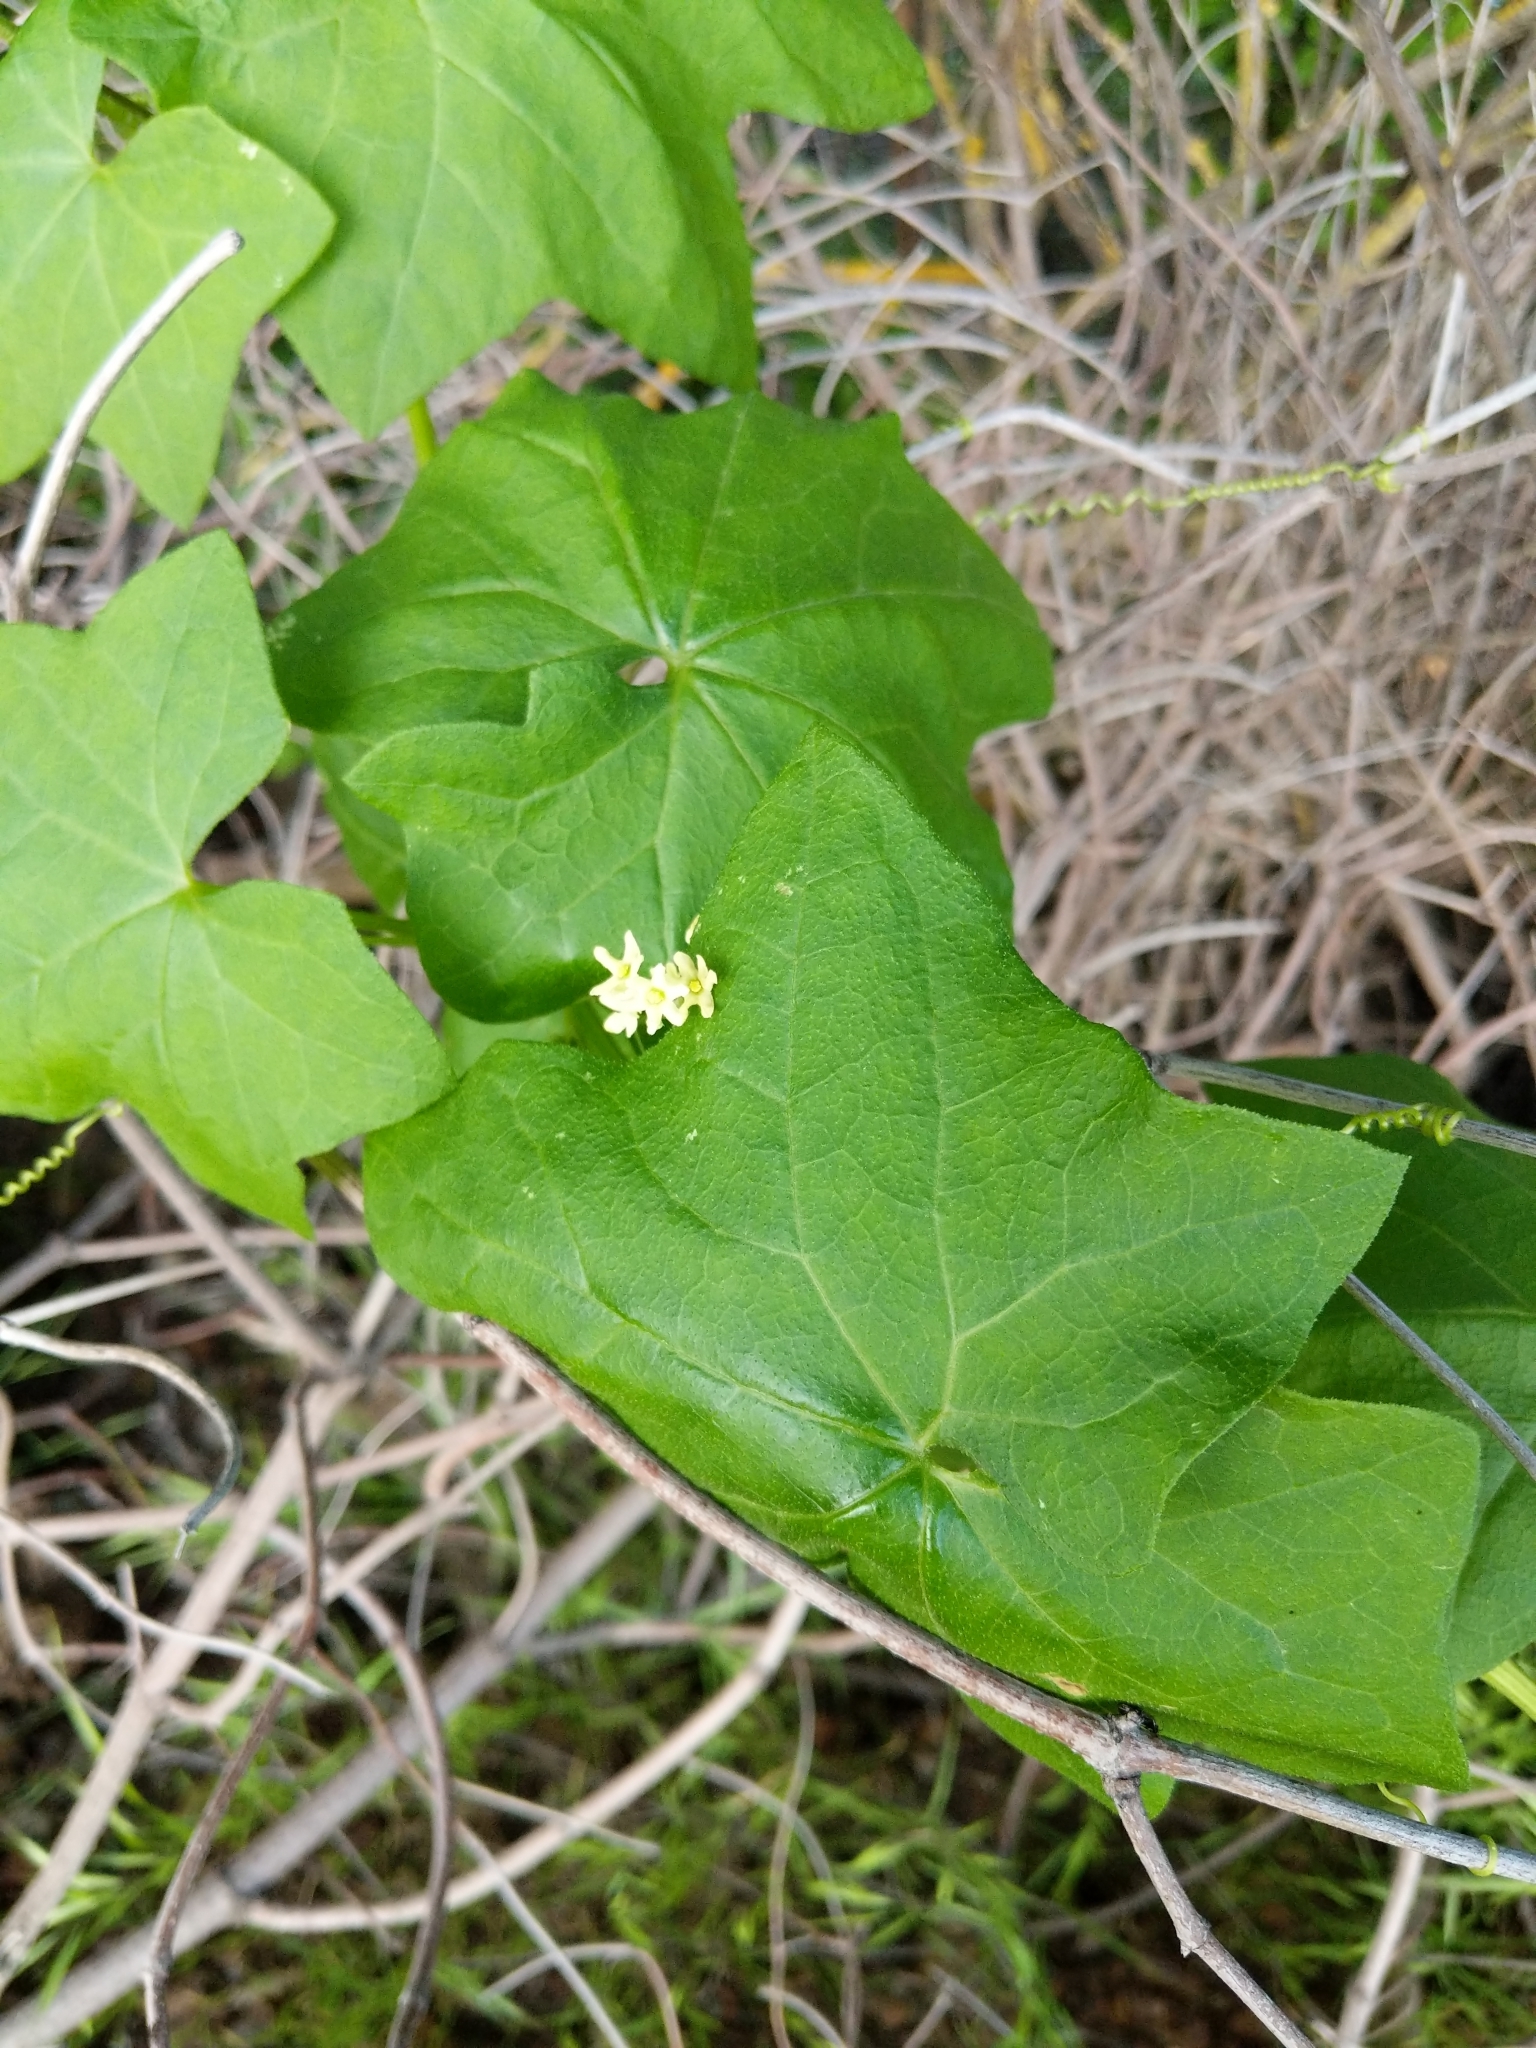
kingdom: Plantae
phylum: Tracheophyta
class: Magnoliopsida
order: Cucurbitales
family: Cucurbitaceae
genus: Marah
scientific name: Marah fabacea
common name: California manroot
